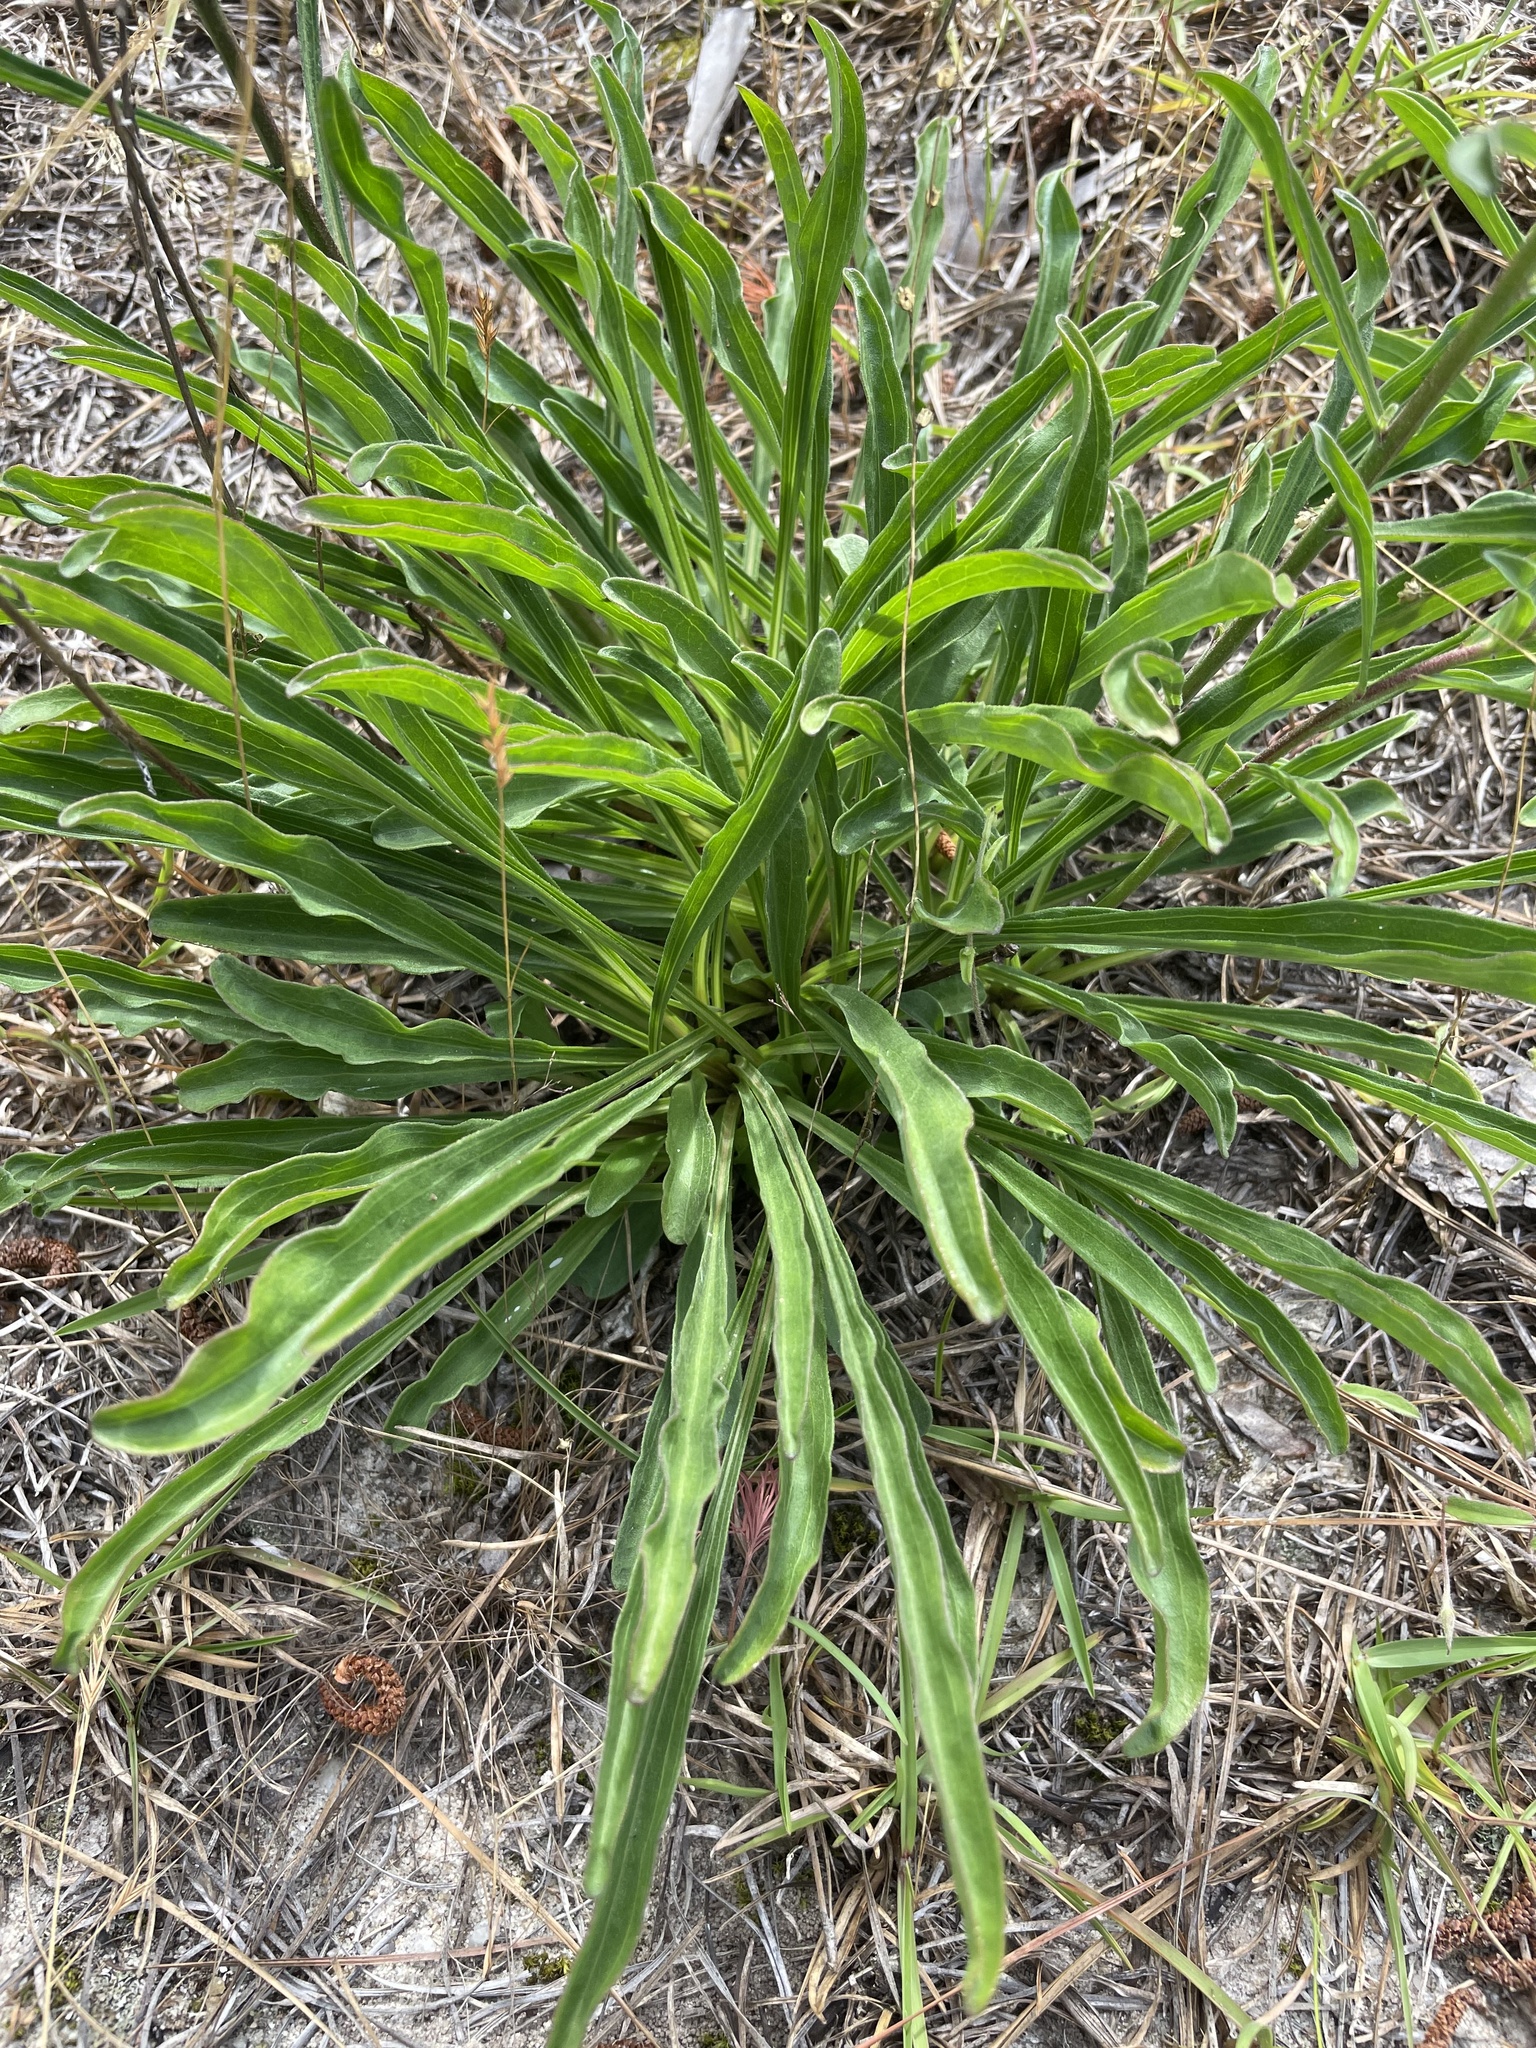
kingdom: Plantae
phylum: Tracheophyta
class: Magnoliopsida
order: Asterales
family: Asteraceae
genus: Carphephorus
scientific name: Carphephorus bellidifolius
